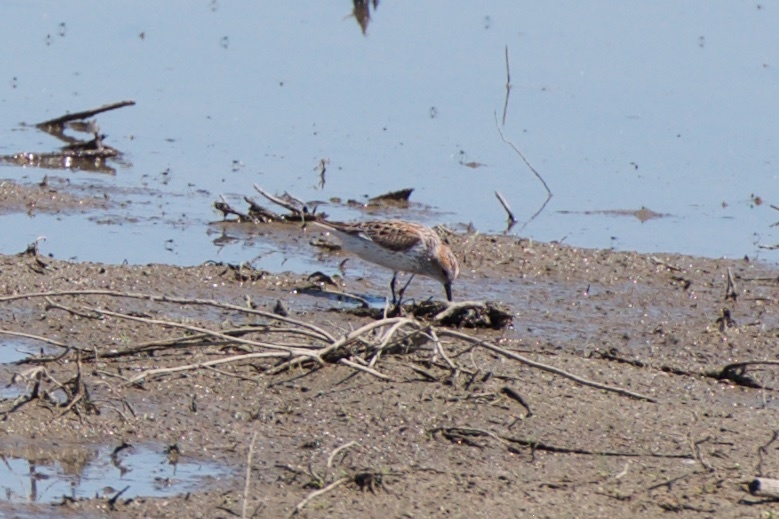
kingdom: Animalia
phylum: Chordata
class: Aves
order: Charadriiformes
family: Scolopacidae
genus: Calidris
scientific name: Calidris mauri
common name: Western sandpiper
